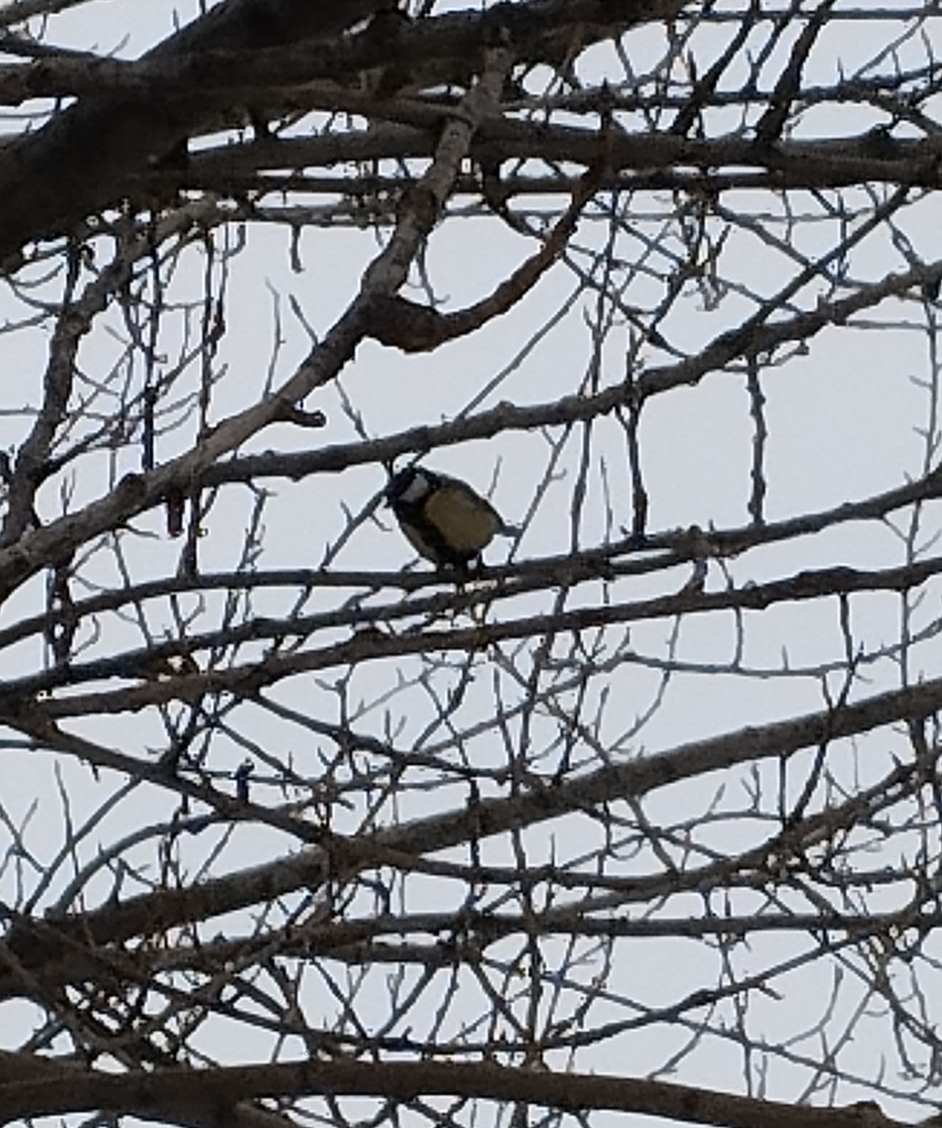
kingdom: Animalia
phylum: Chordata
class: Aves
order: Passeriformes
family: Paridae
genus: Parus
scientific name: Parus major
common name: Great tit
